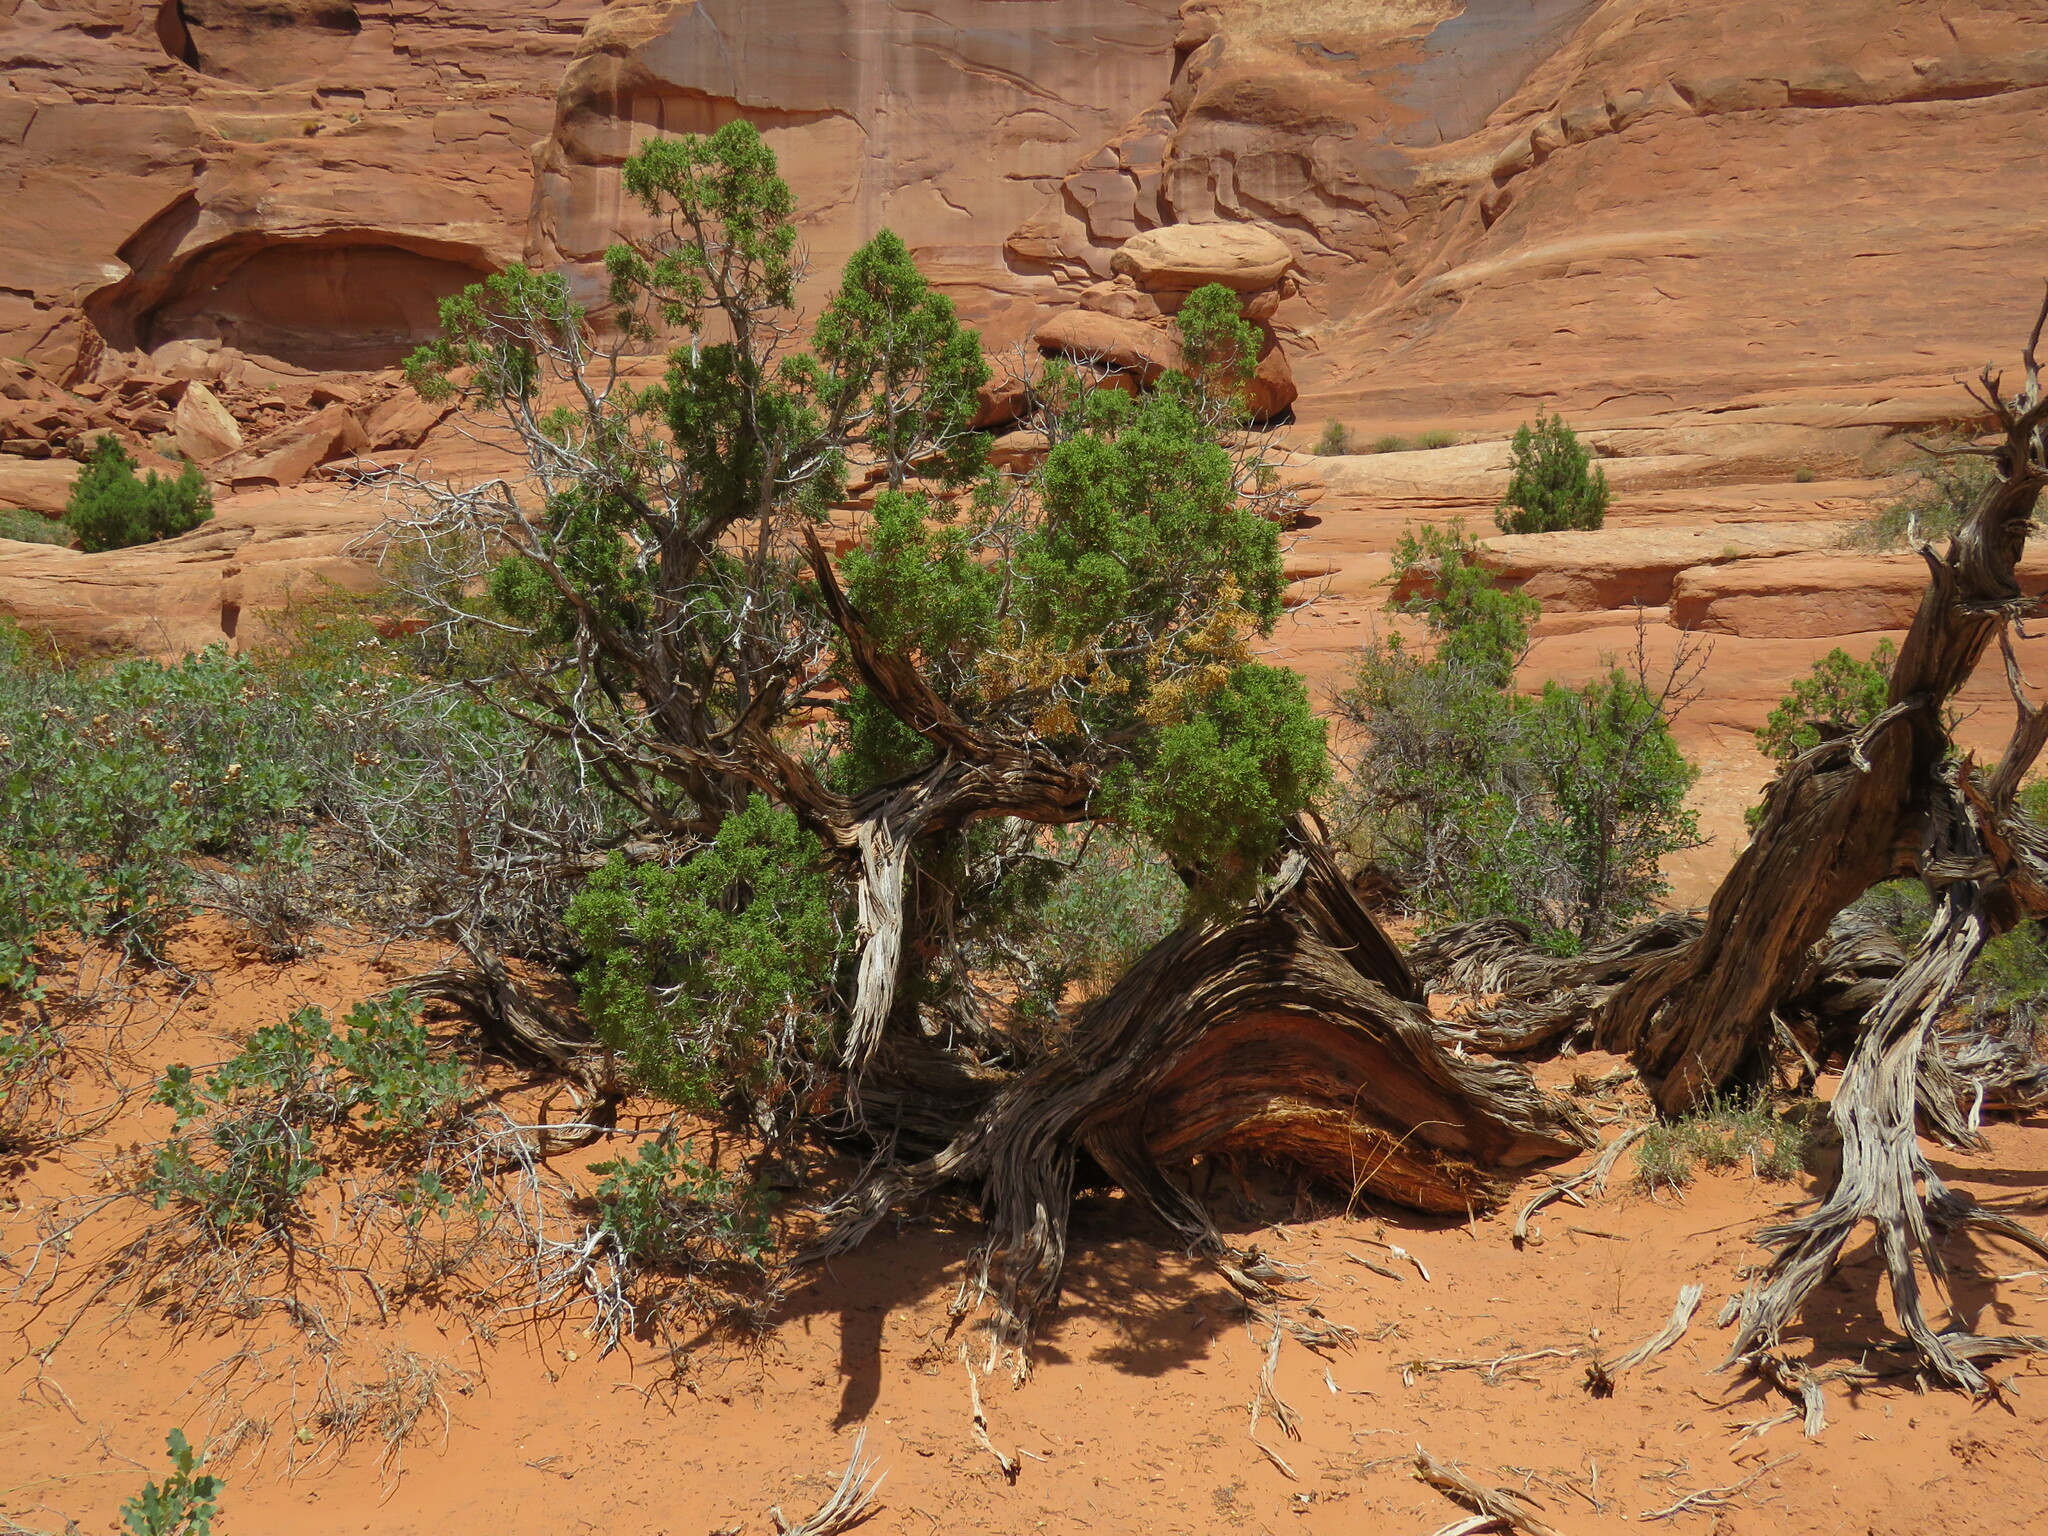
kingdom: Plantae
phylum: Tracheophyta
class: Pinopsida
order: Pinales
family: Cupressaceae
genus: Juniperus
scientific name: Juniperus osteosperma
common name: Utah juniper
